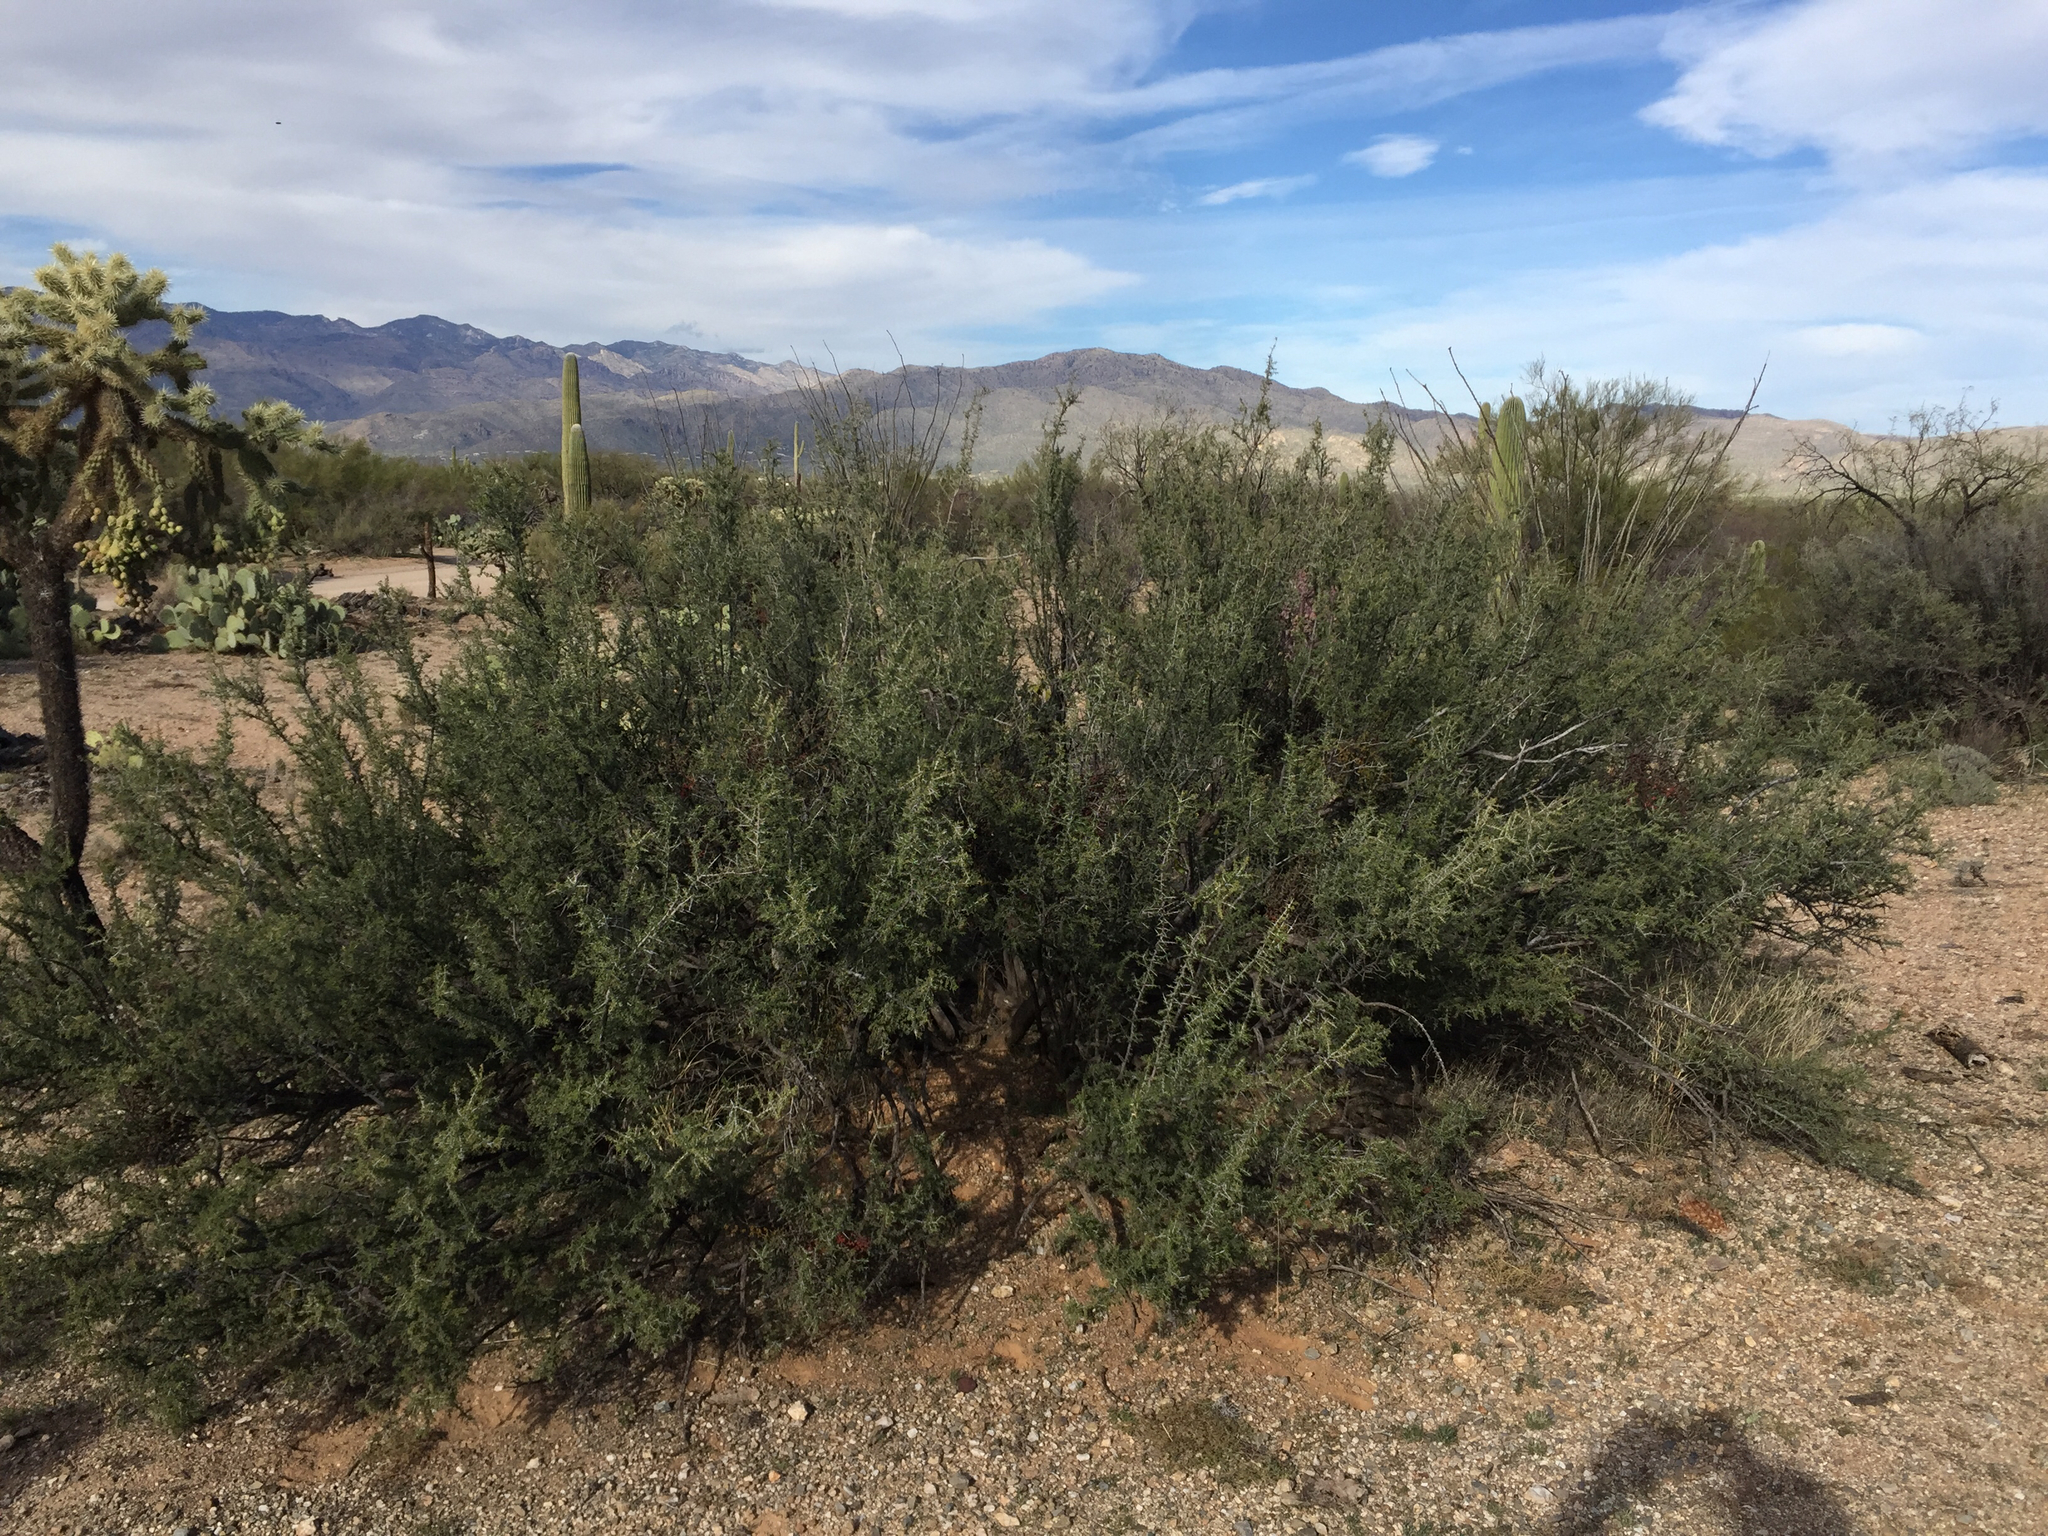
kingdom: Plantae
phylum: Tracheophyta
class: Magnoliopsida
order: Solanales
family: Solanaceae
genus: Lycium
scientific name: Lycium berlandieri
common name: Berlandier wolfberry
